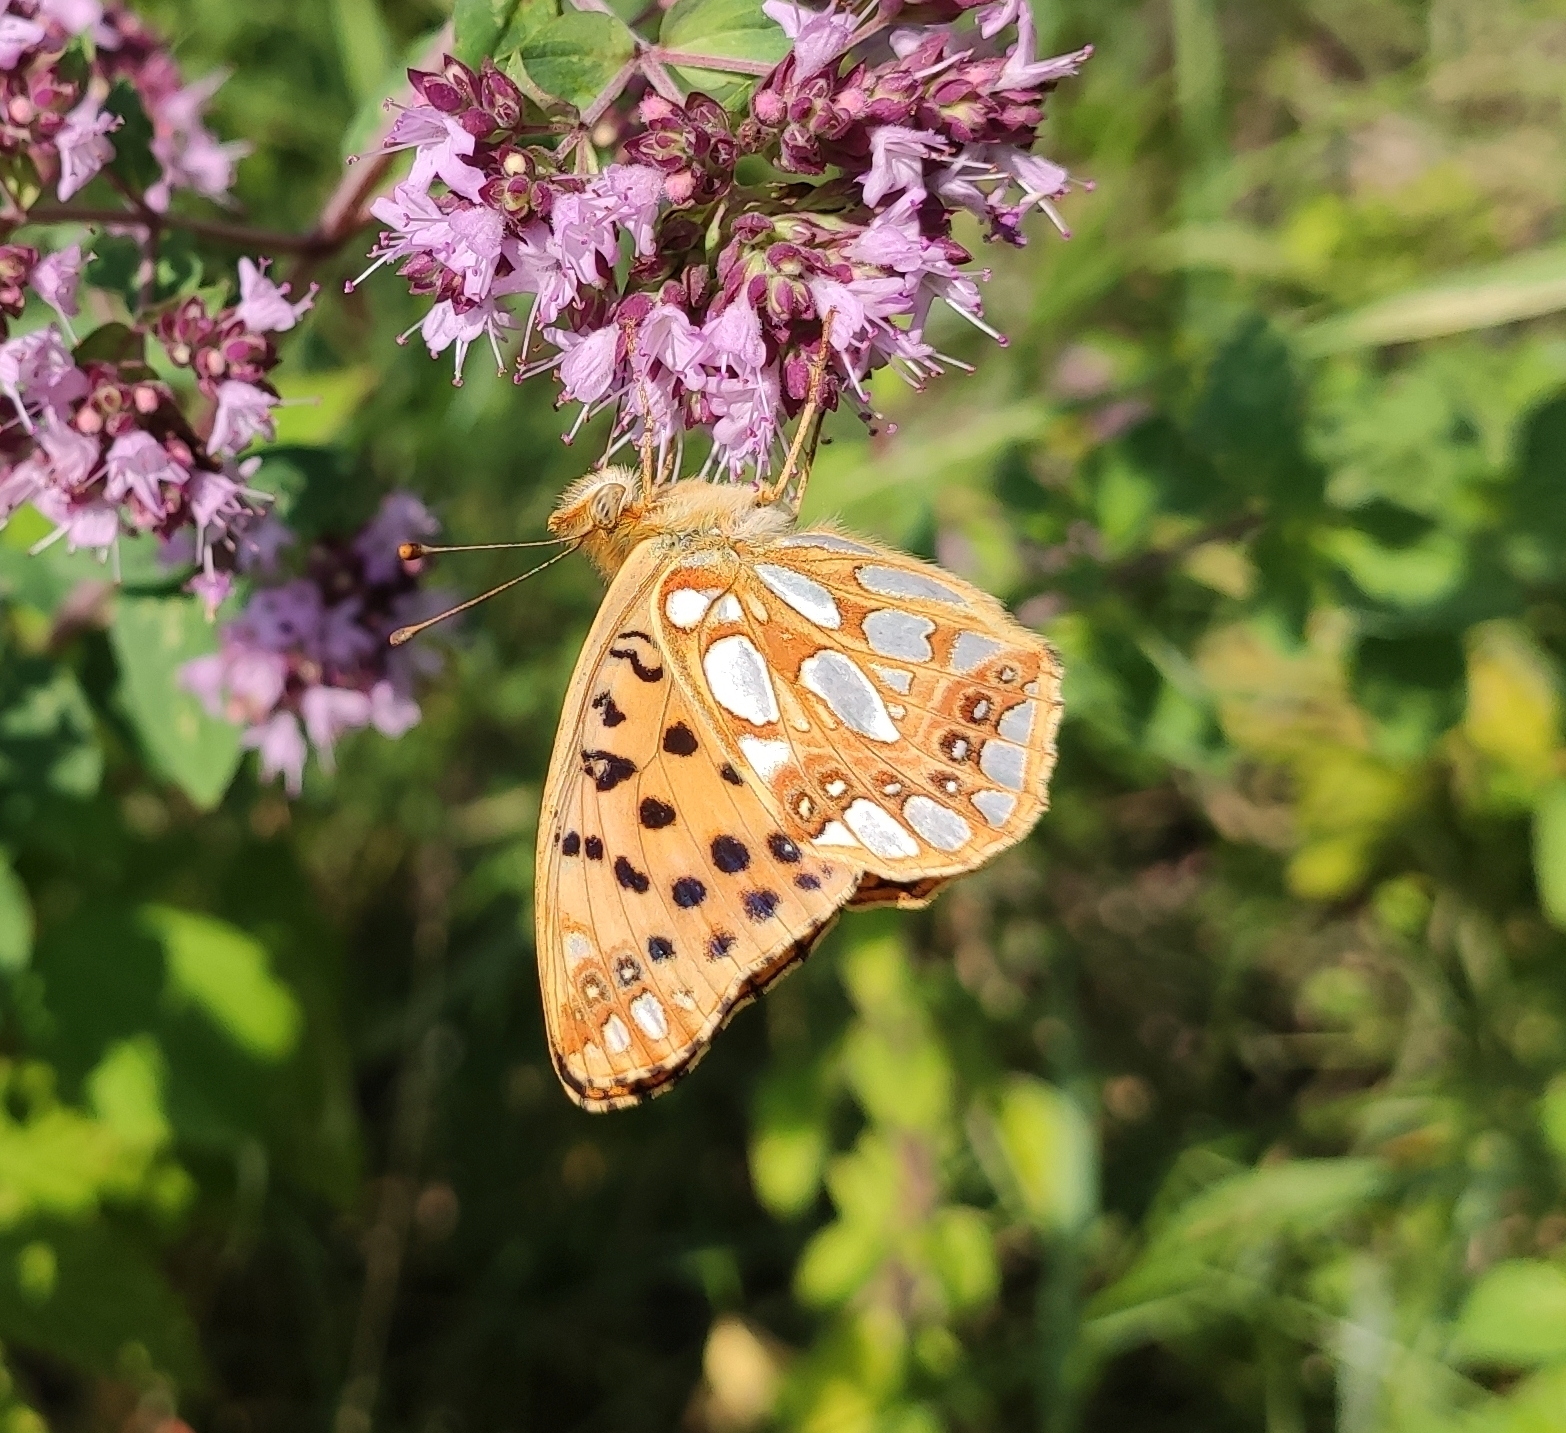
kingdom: Animalia
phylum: Arthropoda
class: Insecta
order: Lepidoptera
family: Nymphalidae
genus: Issoria
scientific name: Issoria lathonia
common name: Queen of spain fritillary
